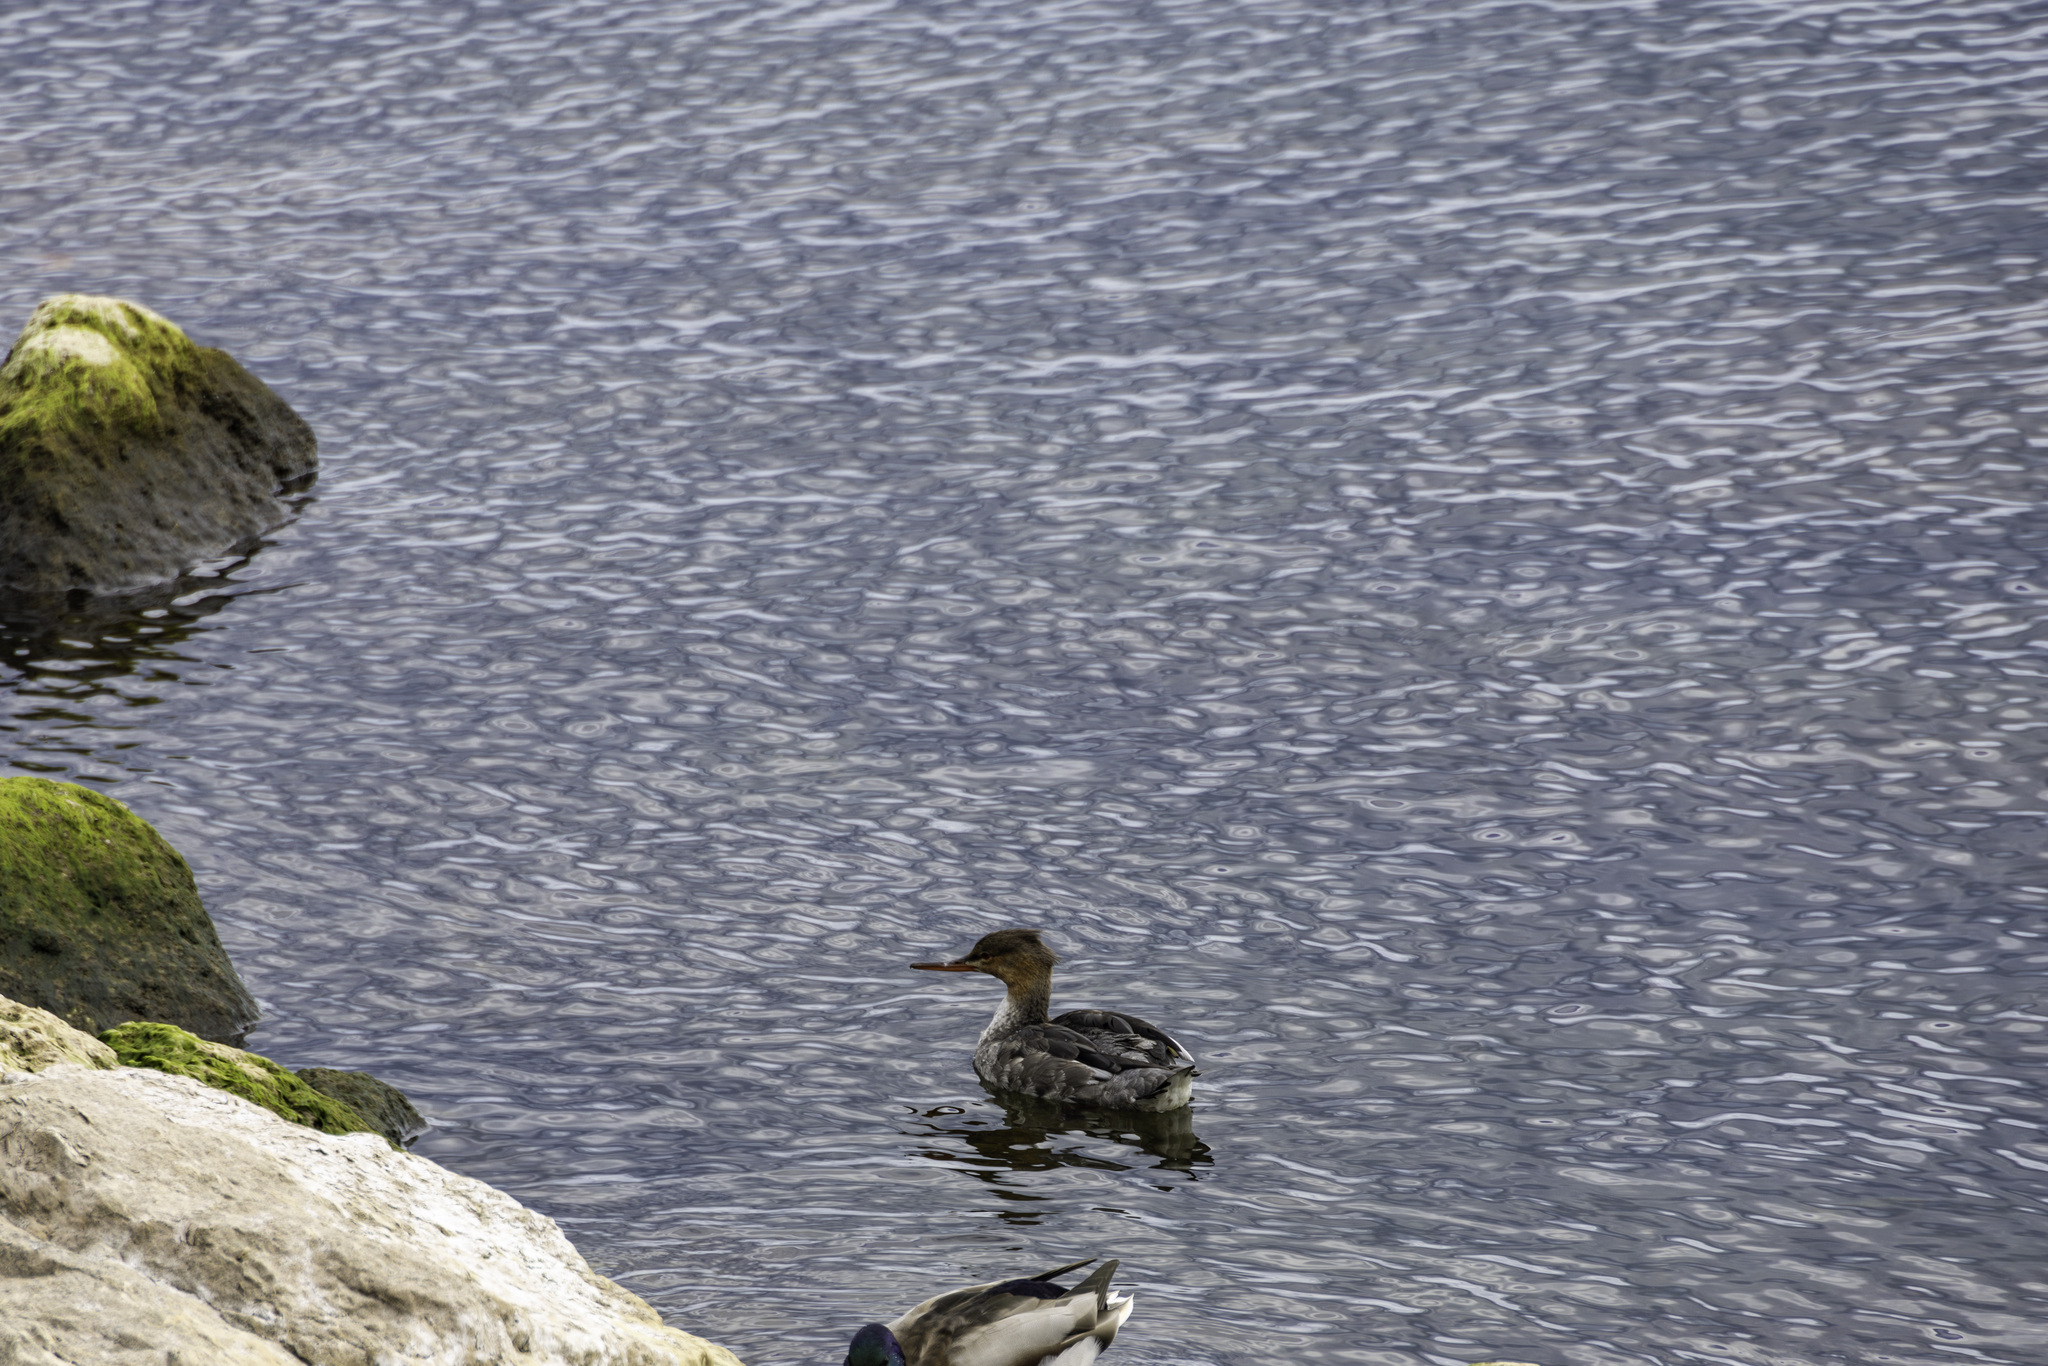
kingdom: Animalia
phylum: Chordata
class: Aves
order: Anseriformes
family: Anatidae
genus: Mergus
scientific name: Mergus serrator
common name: Red-breasted merganser
